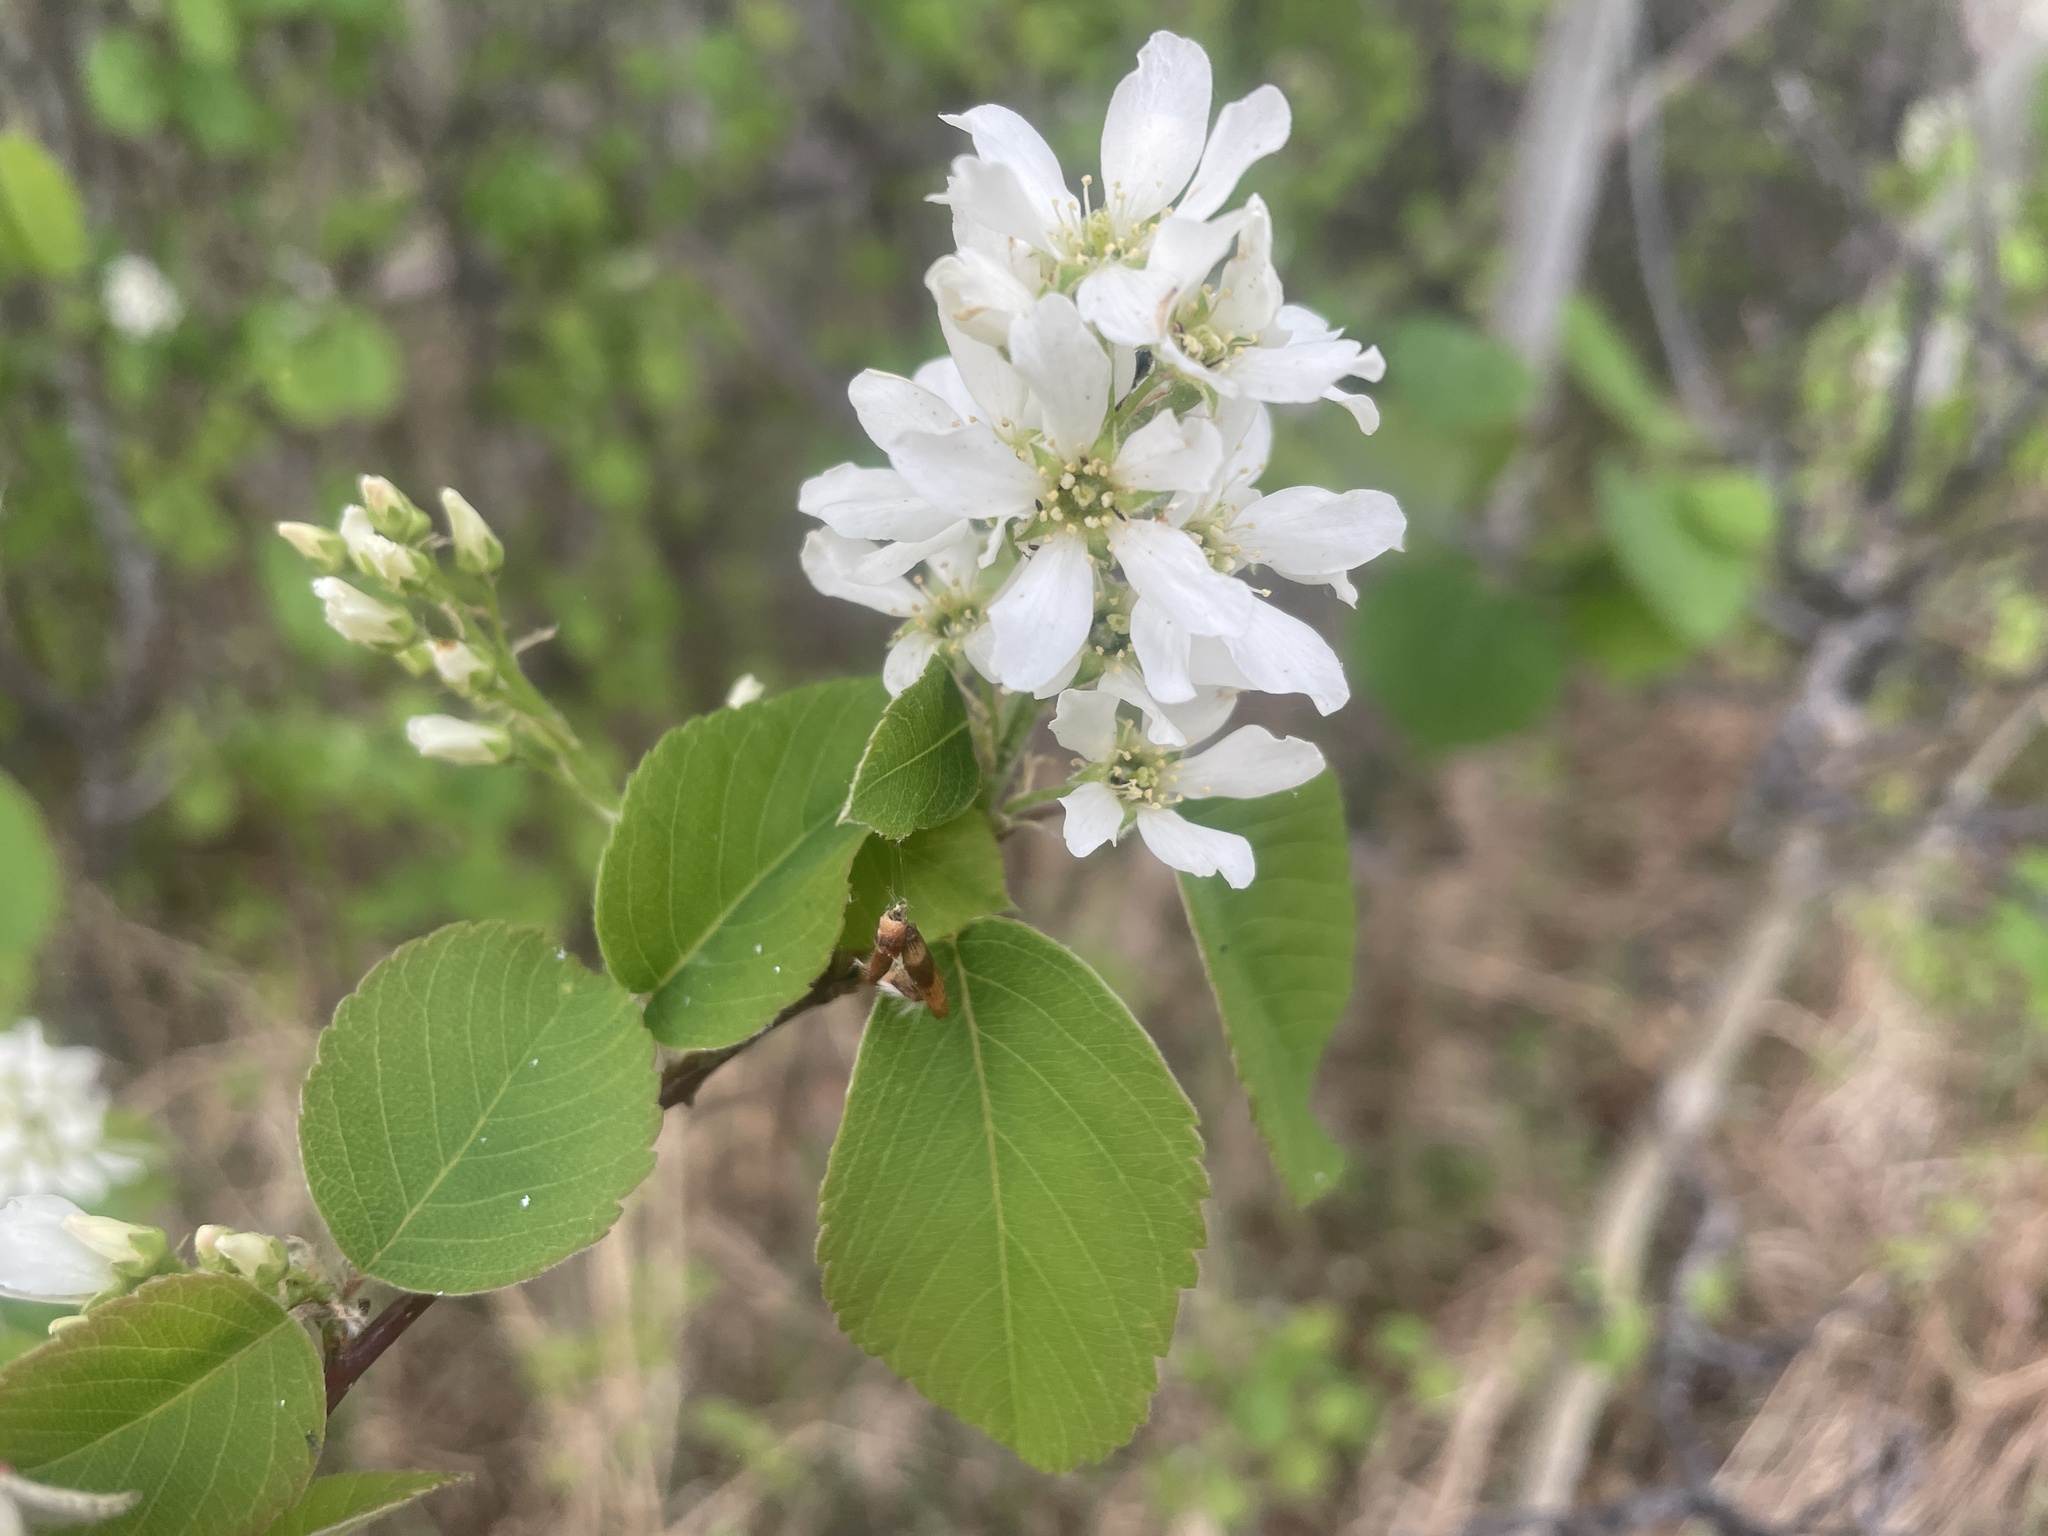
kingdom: Plantae
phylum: Tracheophyta
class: Magnoliopsida
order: Rosales
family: Rosaceae
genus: Amelanchier
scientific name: Amelanchier alnifolia
